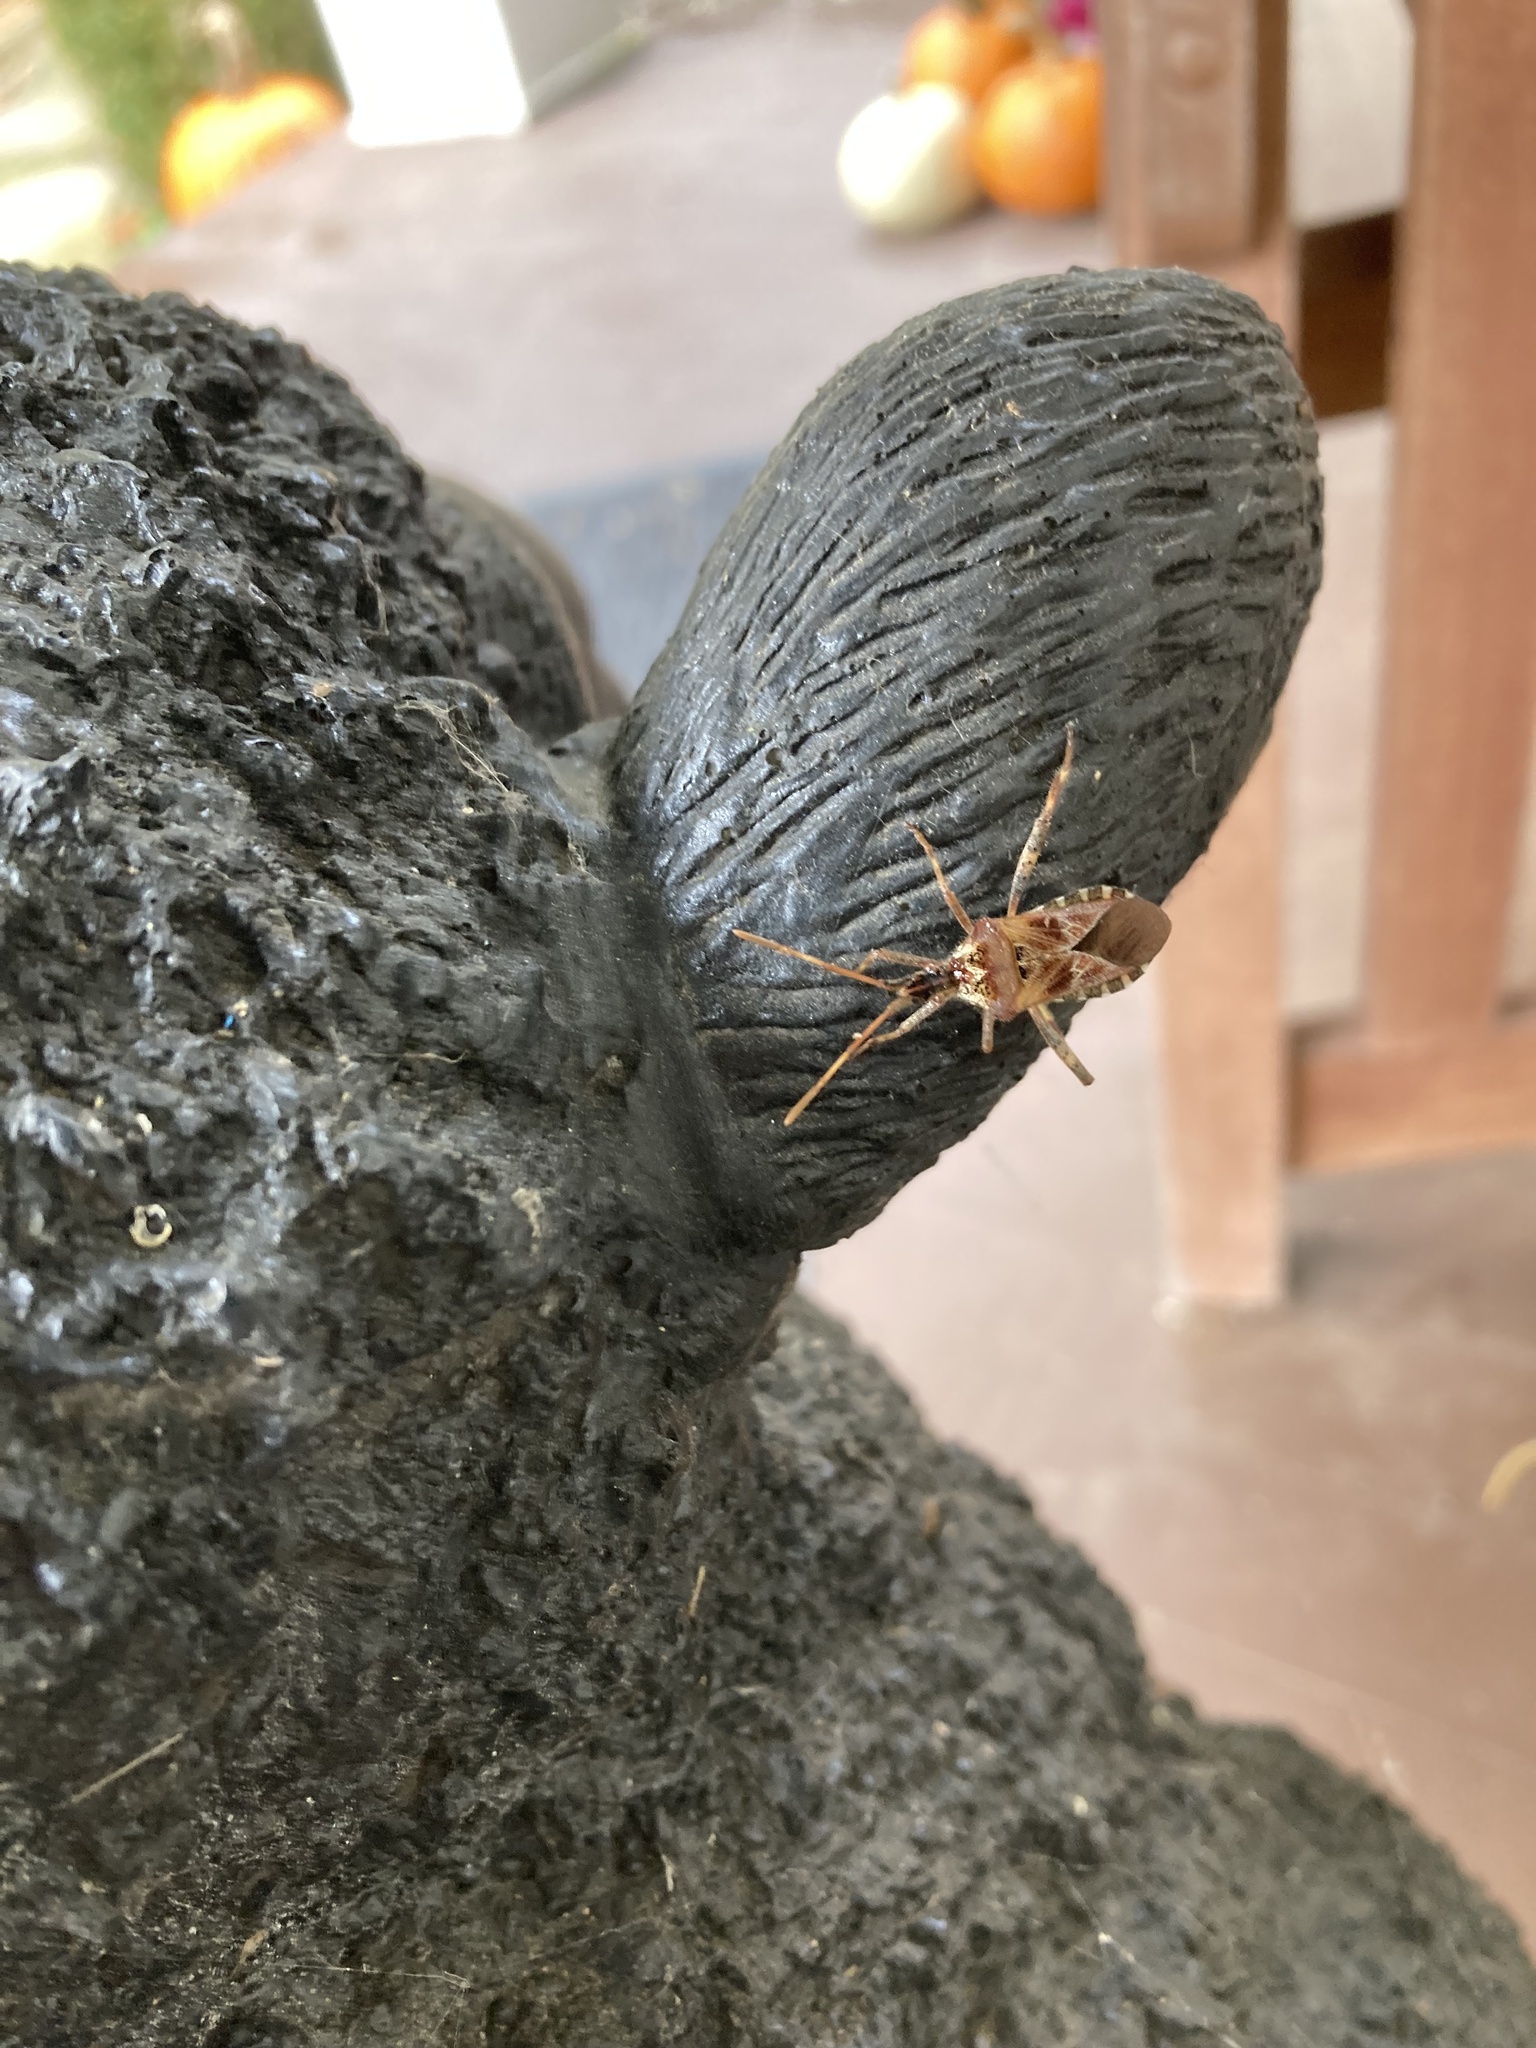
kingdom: Animalia
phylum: Arthropoda
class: Insecta
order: Hemiptera
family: Coreidae
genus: Leptoglossus
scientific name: Leptoglossus occidentalis
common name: Western conifer-seed bug
